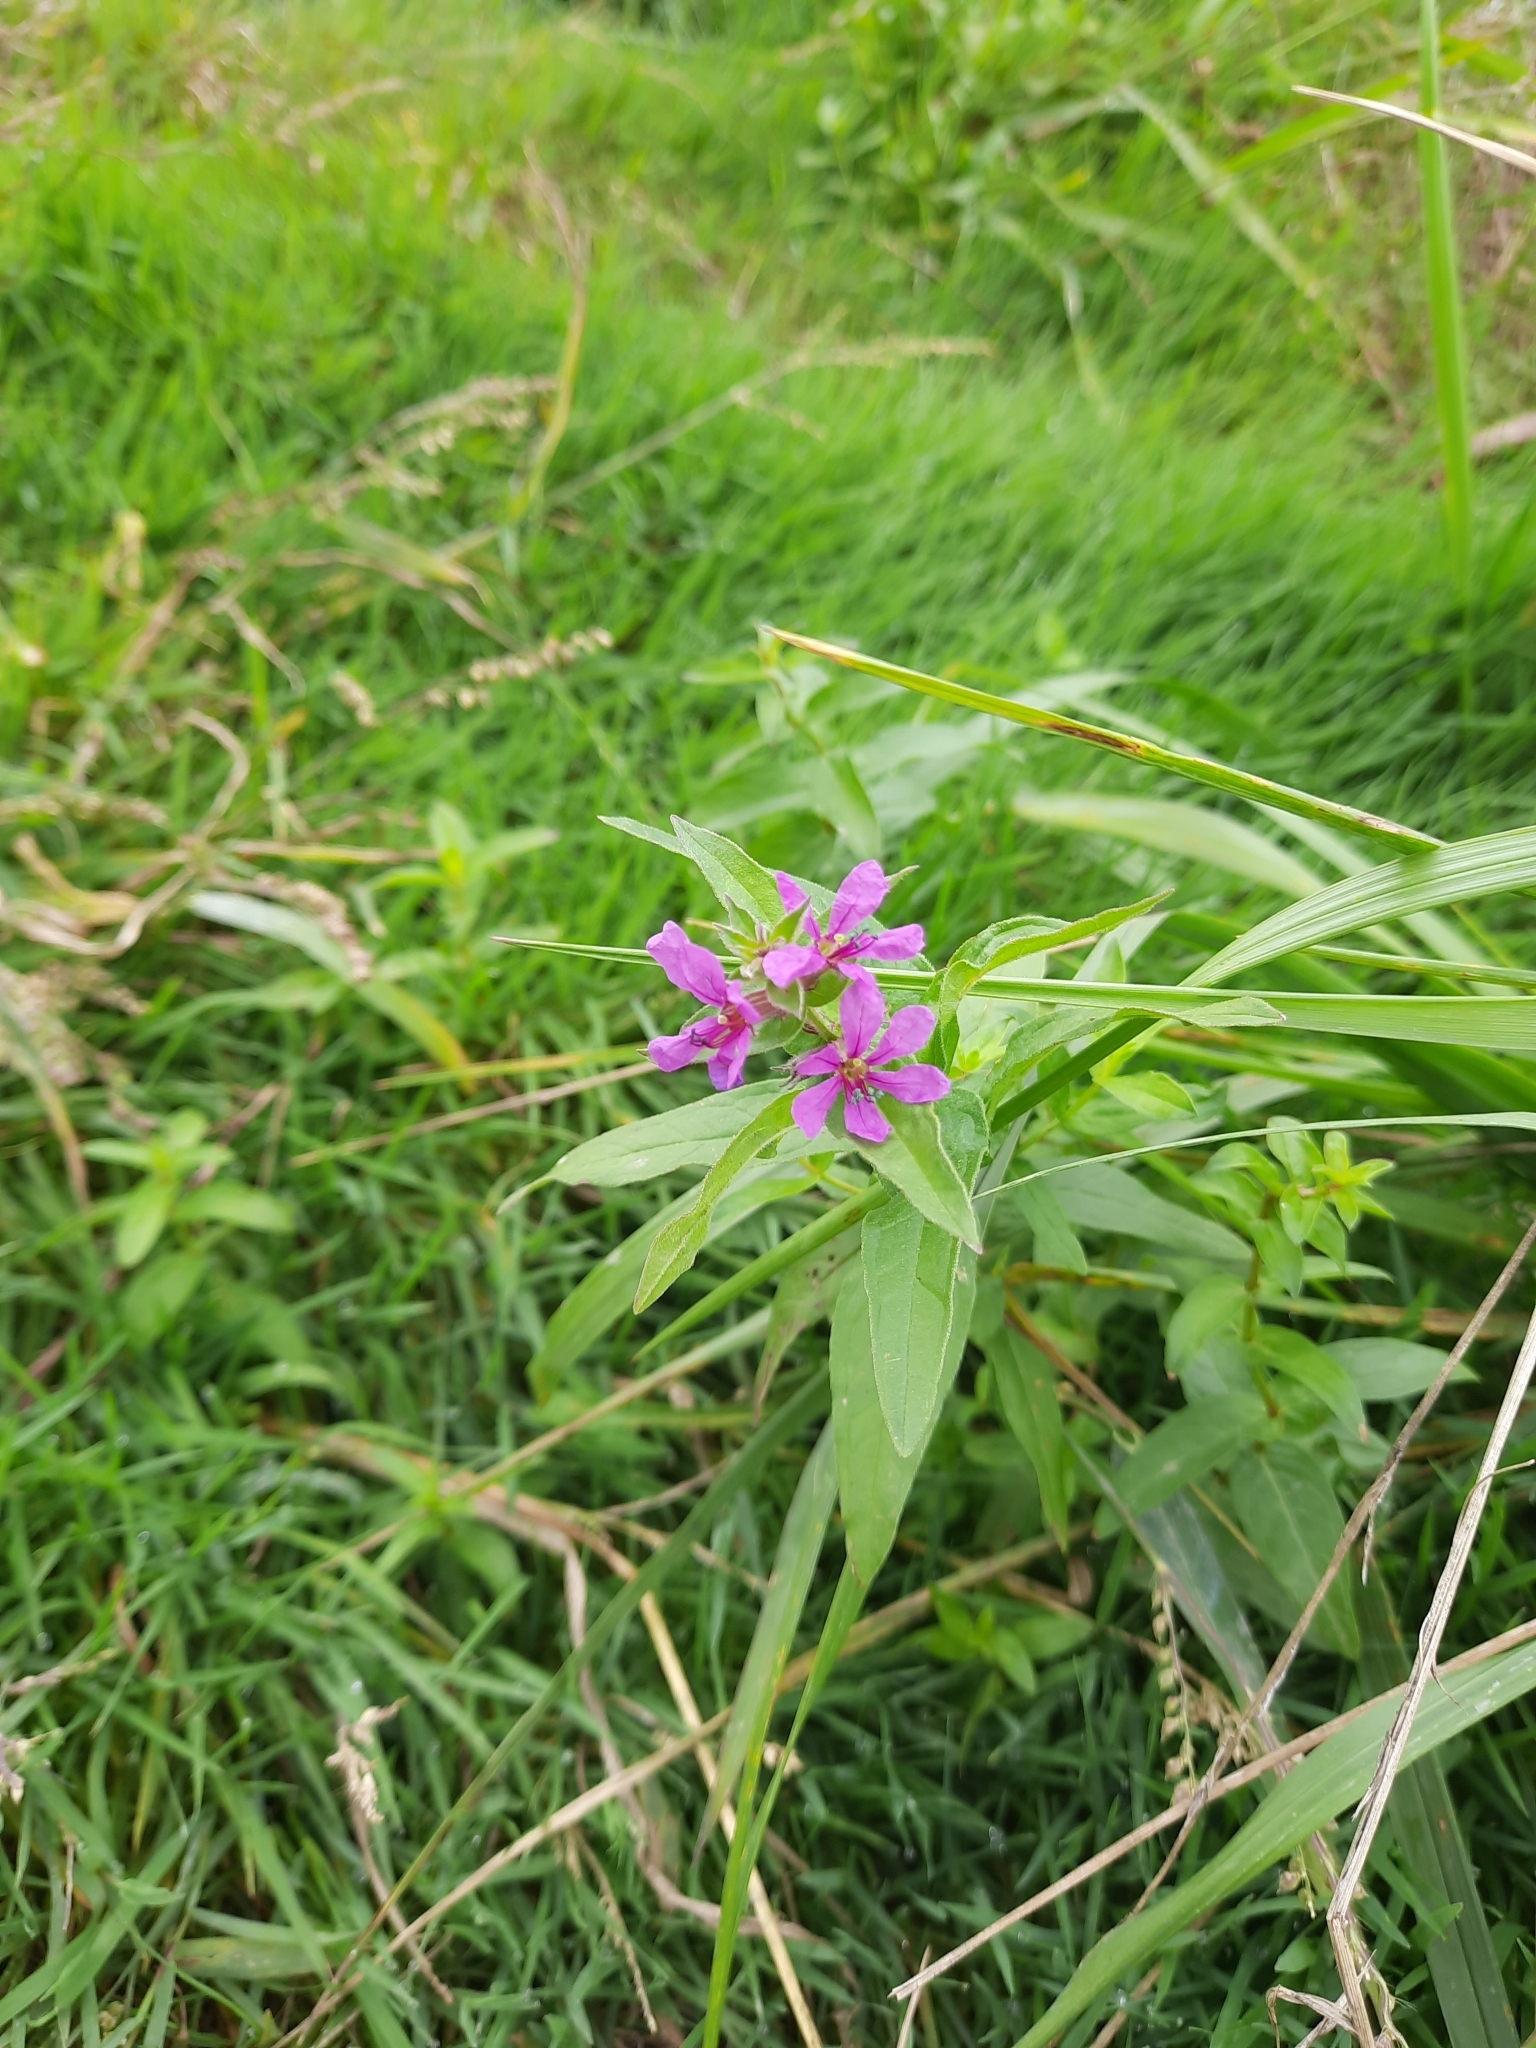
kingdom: Plantae
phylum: Tracheophyta
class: Magnoliopsida
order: Myrtales
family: Lythraceae
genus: Lythrum
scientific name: Lythrum salicaria
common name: Purple loosestrife
